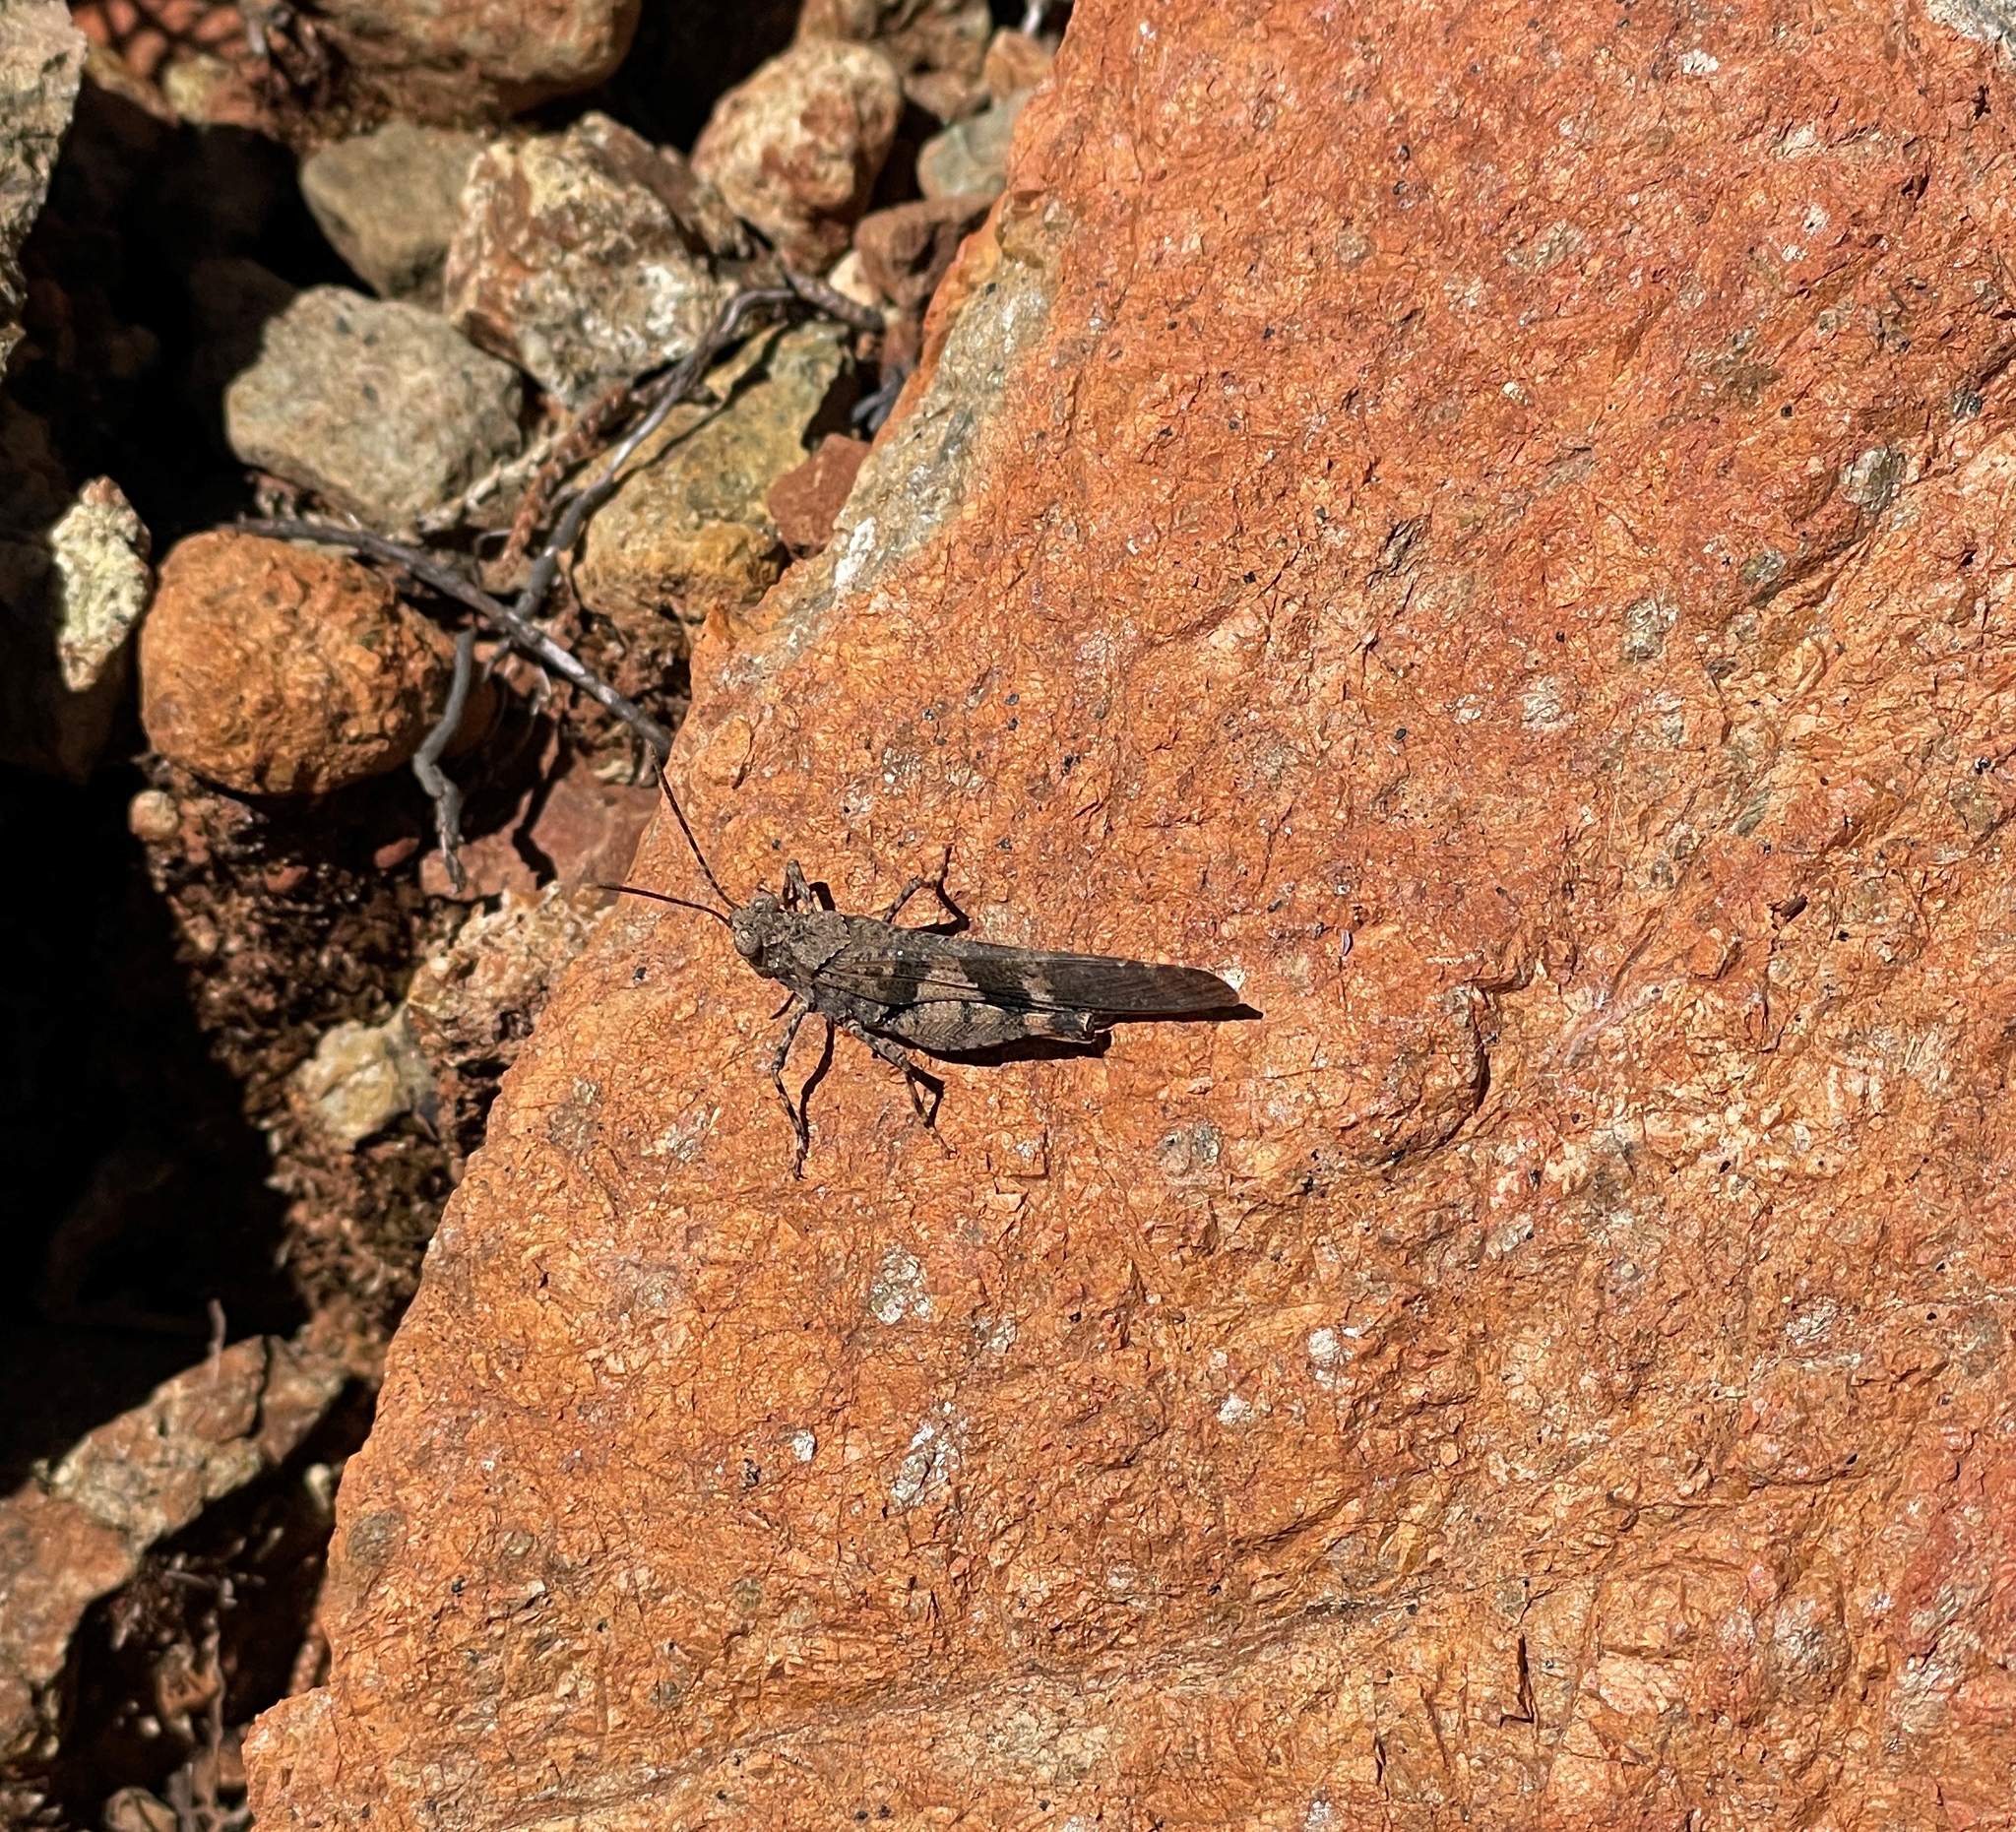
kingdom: Animalia
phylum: Arthropoda
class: Insecta
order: Orthoptera
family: Acrididae
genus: Trimerotropis
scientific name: Trimerotropis fontana
